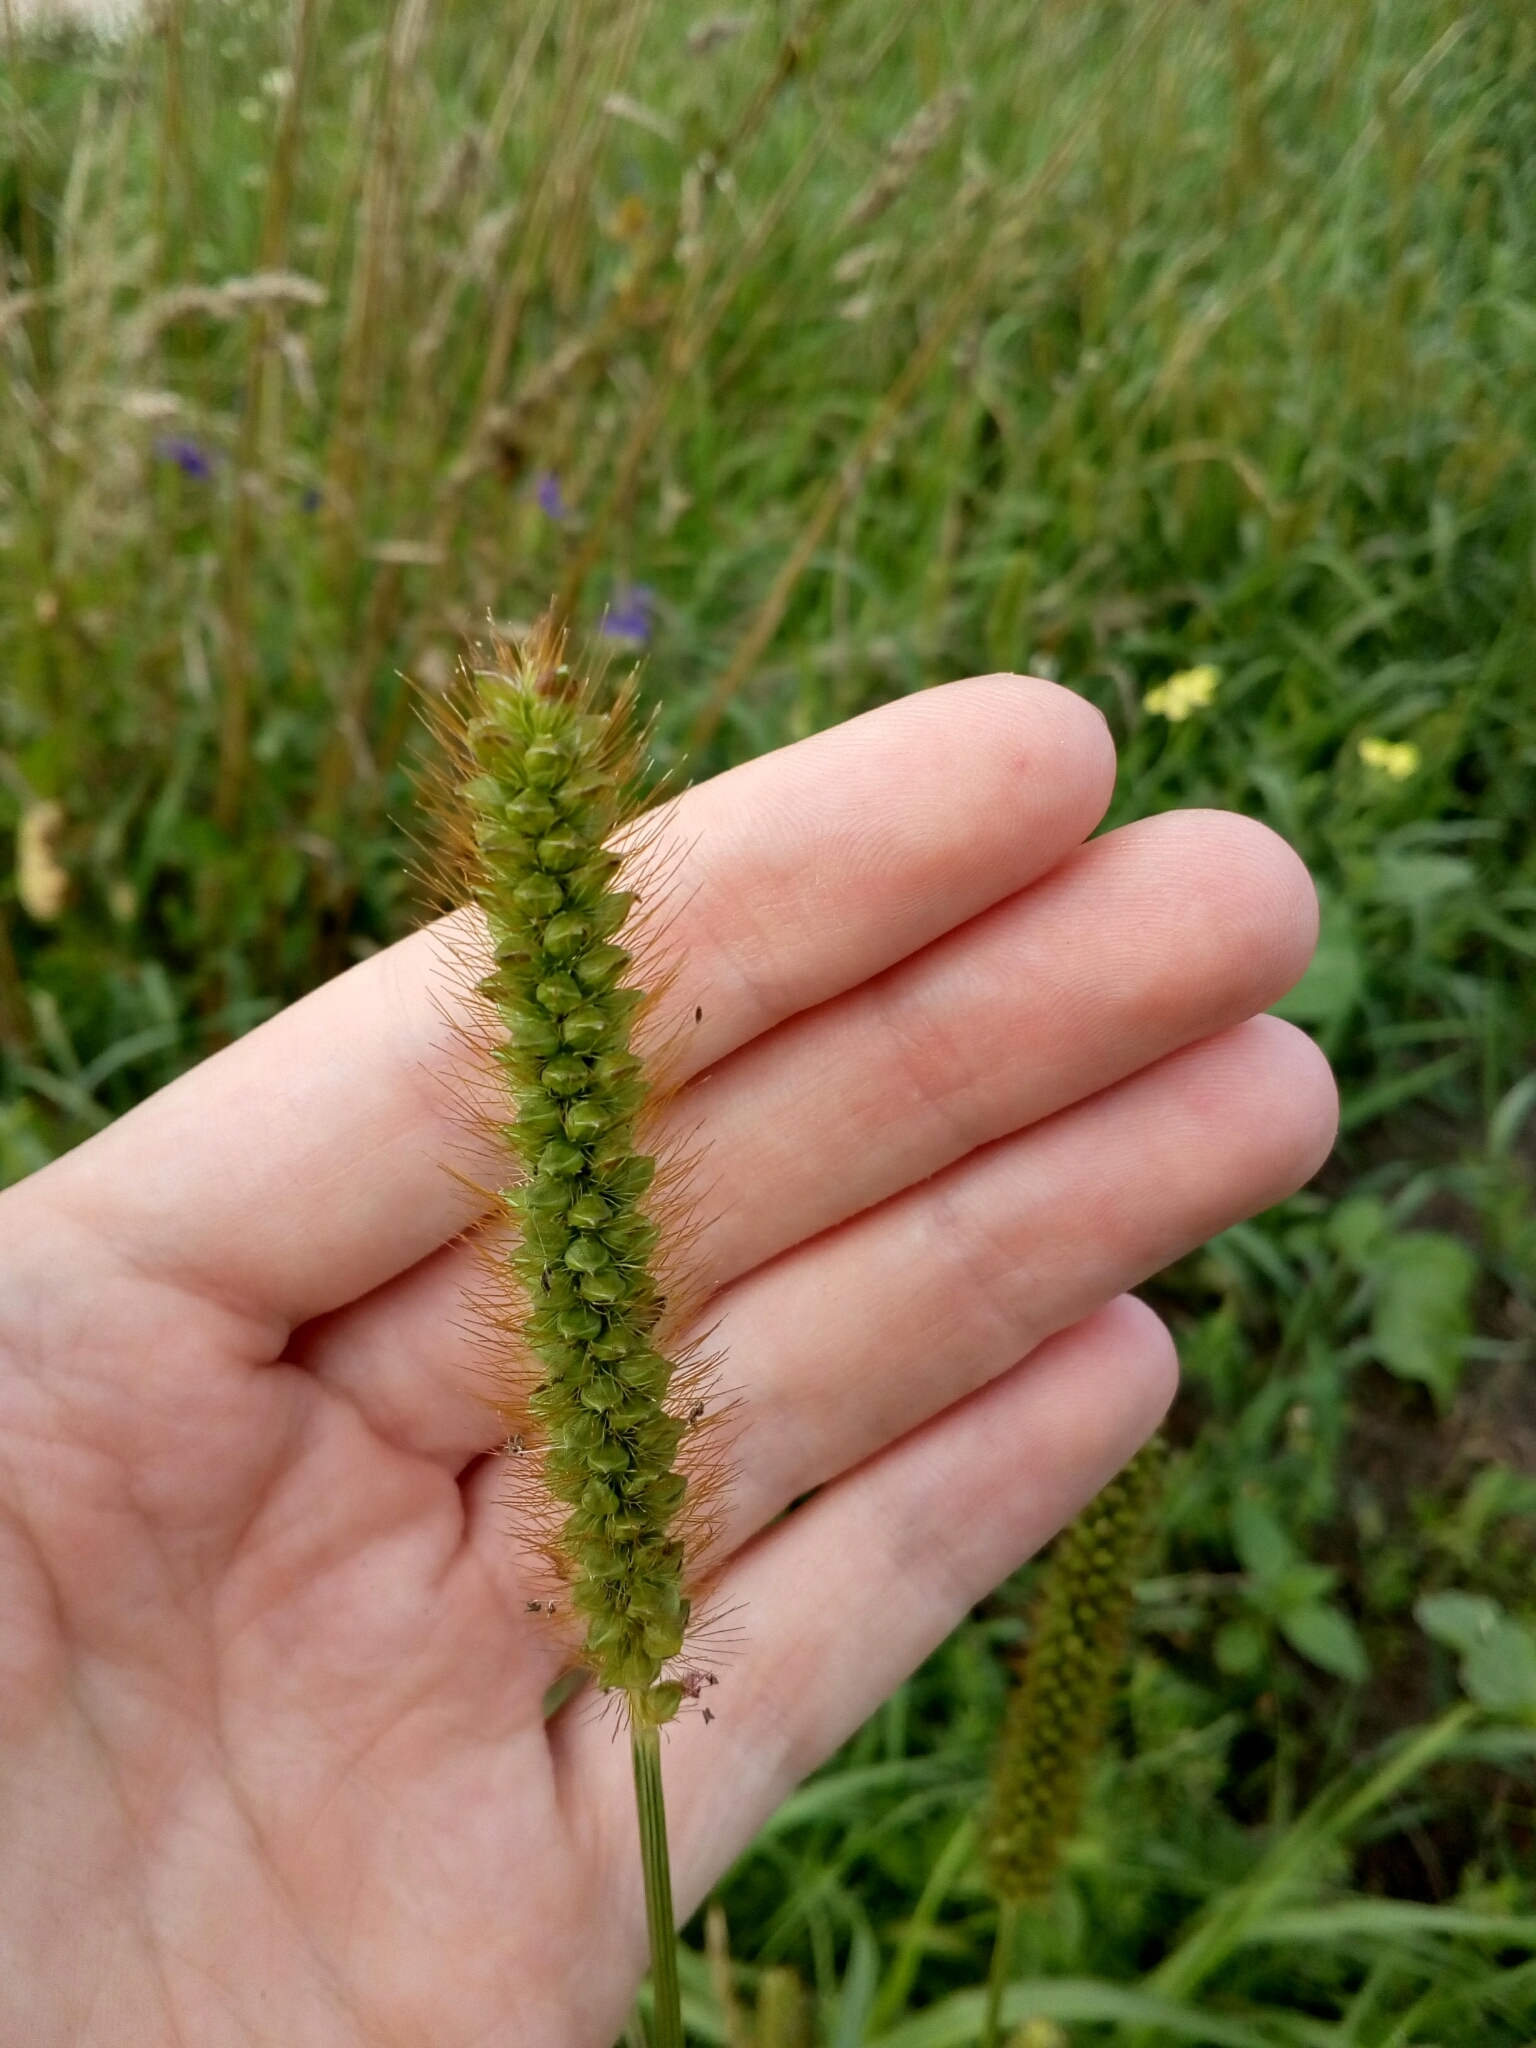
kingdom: Plantae
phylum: Tracheophyta
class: Liliopsida
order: Poales
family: Poaceae
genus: Setaria
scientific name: Setaria pumila
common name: Yellow bristle-grass
